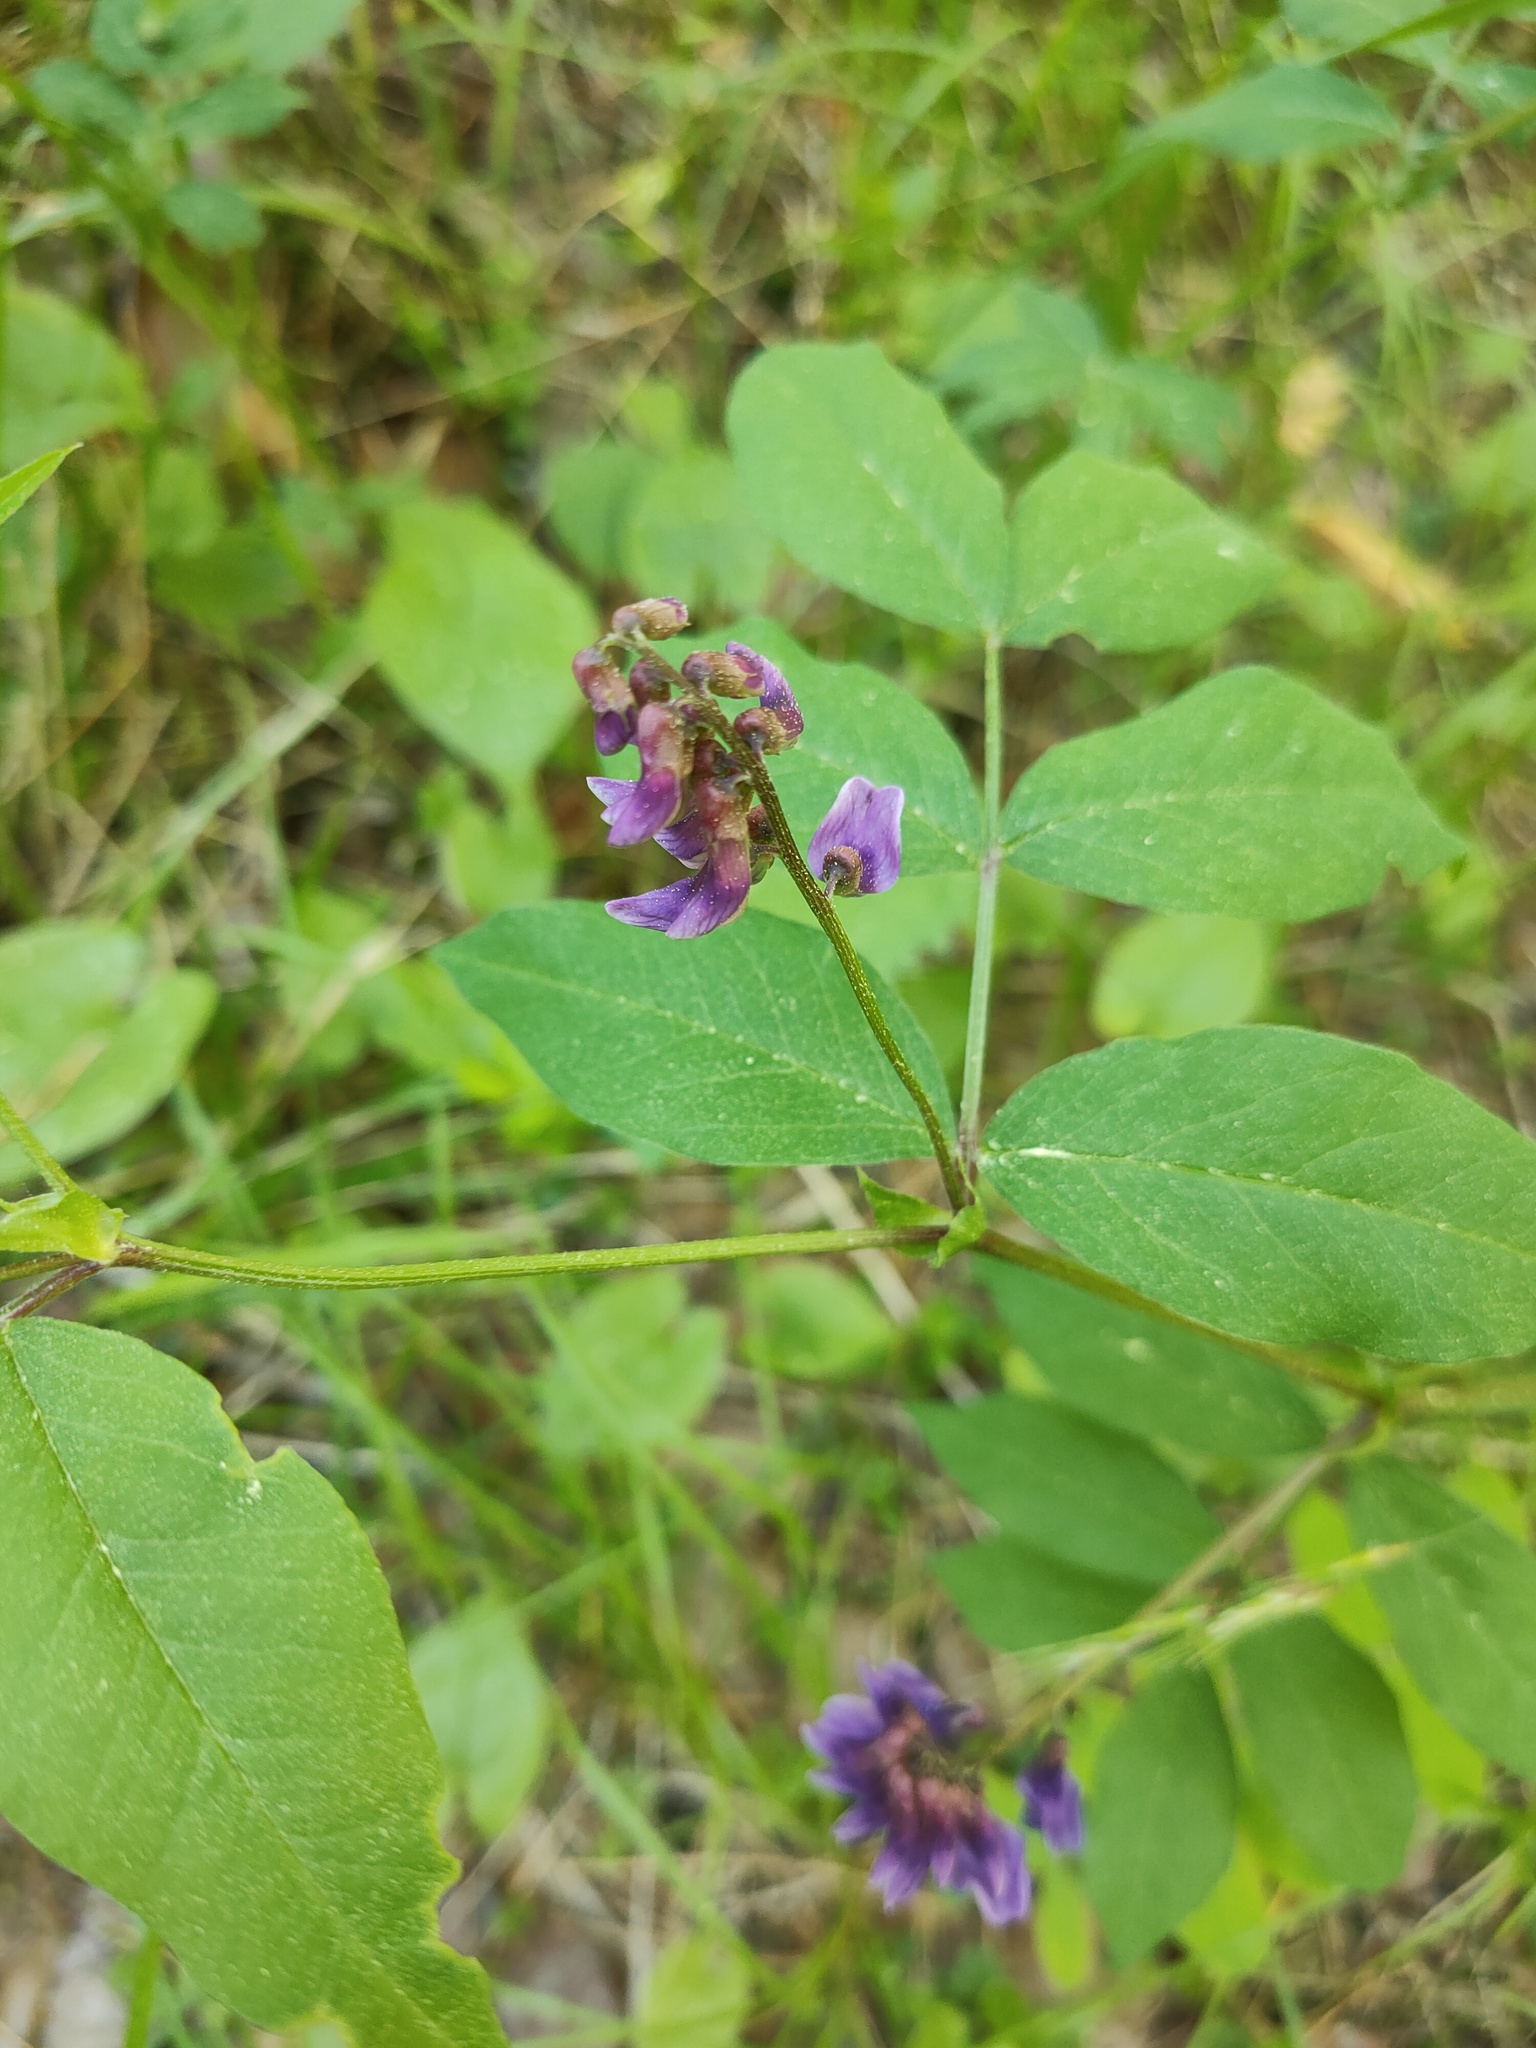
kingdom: Plantae
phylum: Tracheophyta
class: Magnoliopsida
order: Fabales
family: Fabaceae
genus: Vicia
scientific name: Vicia ramuliflora
